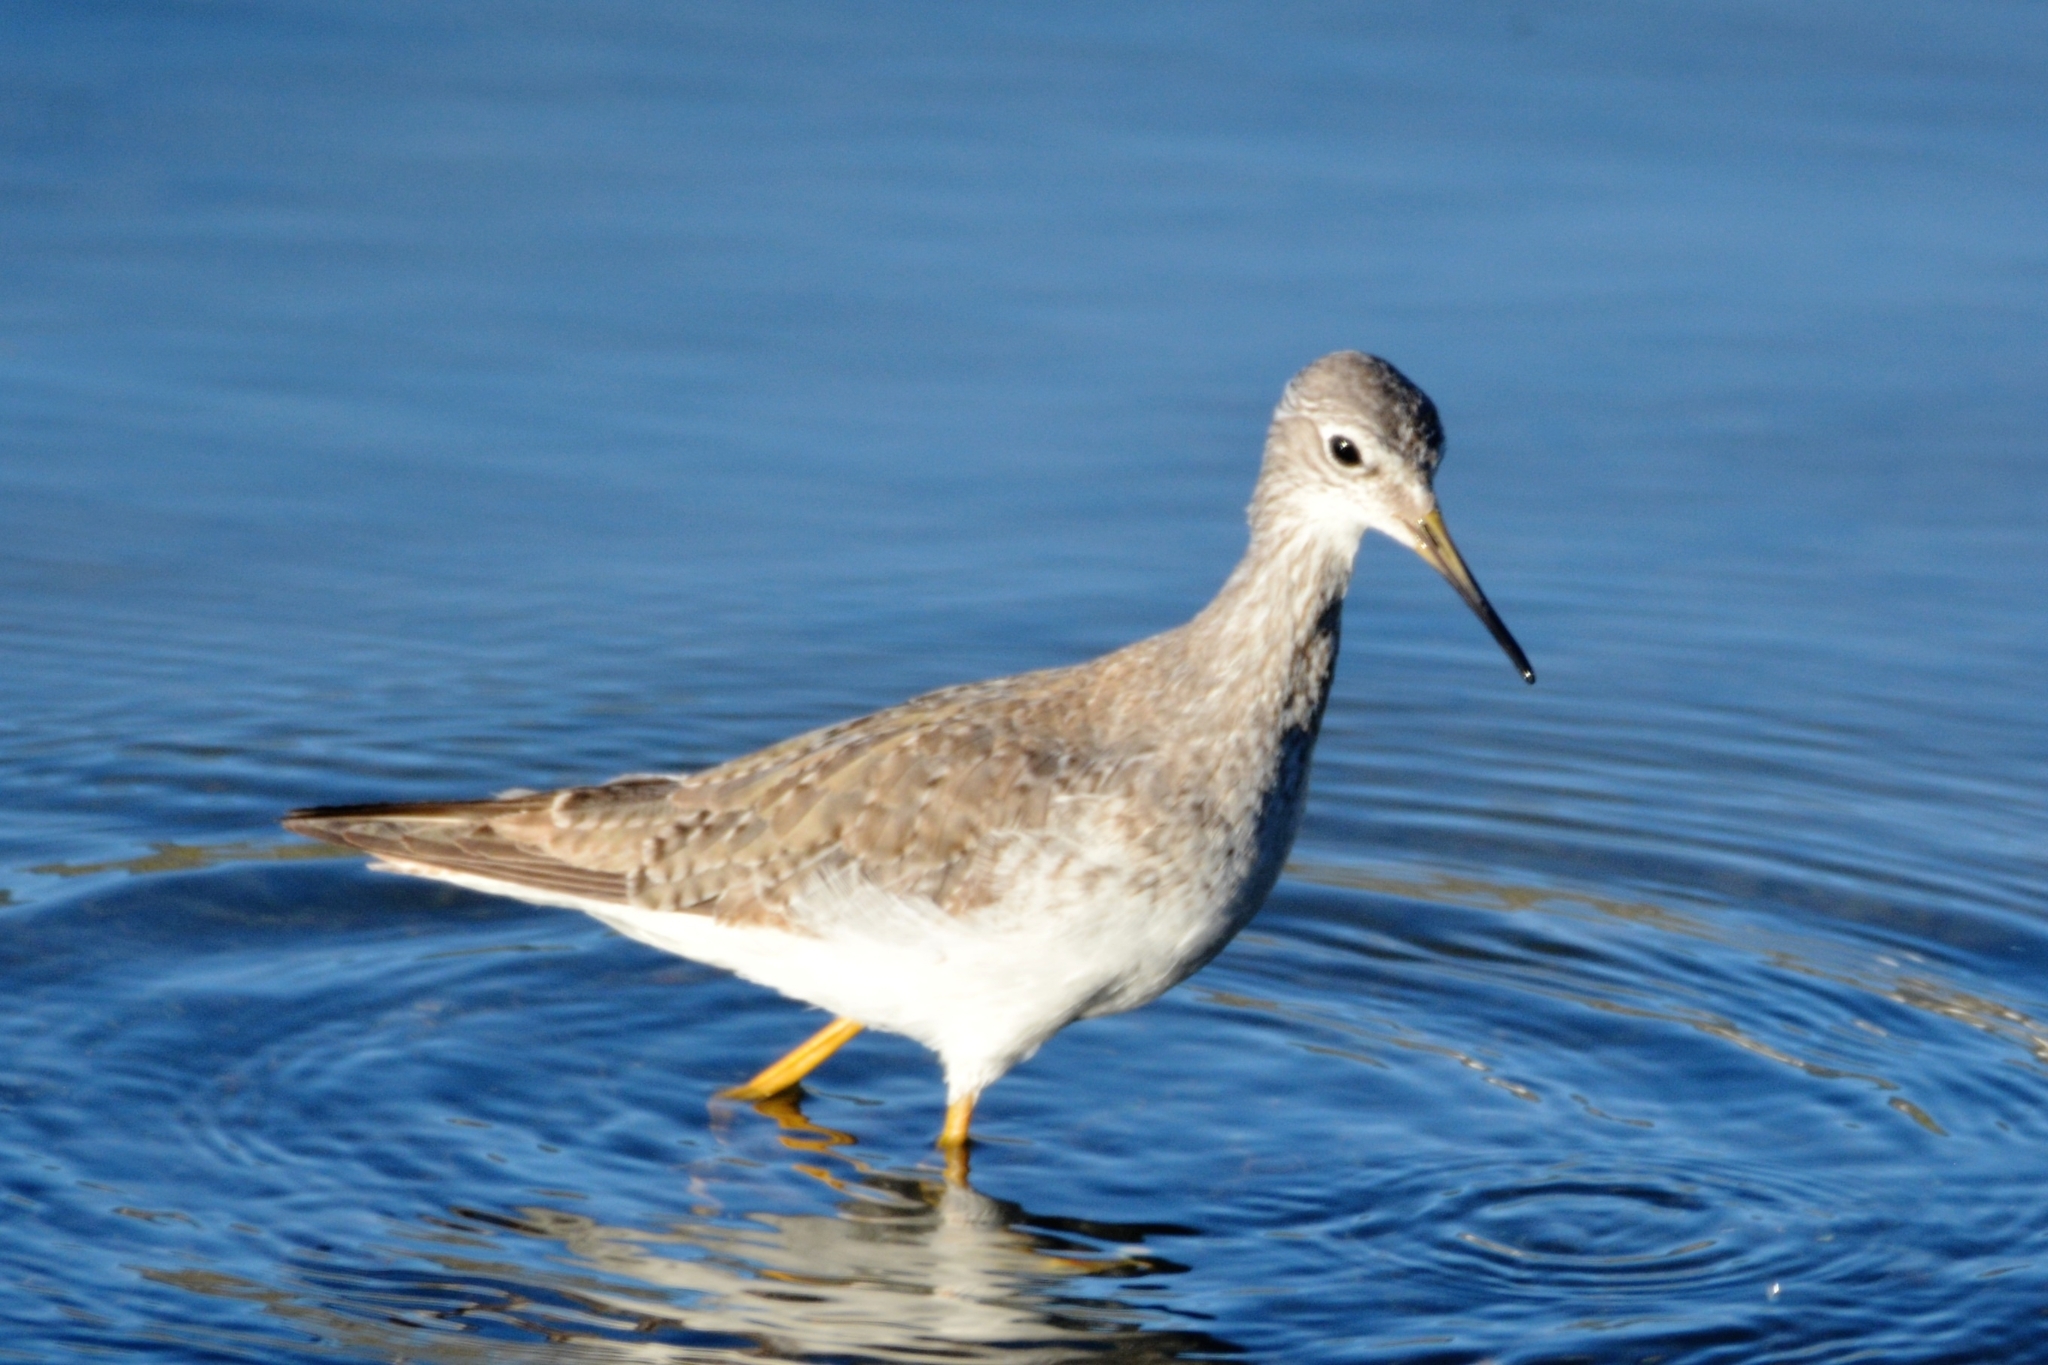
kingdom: Animalia
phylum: Chordata
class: Aves
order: Charadriiformes
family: Scolopacidae
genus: Tringa
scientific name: Tringa flavipes
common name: Lesser yellowlegs
